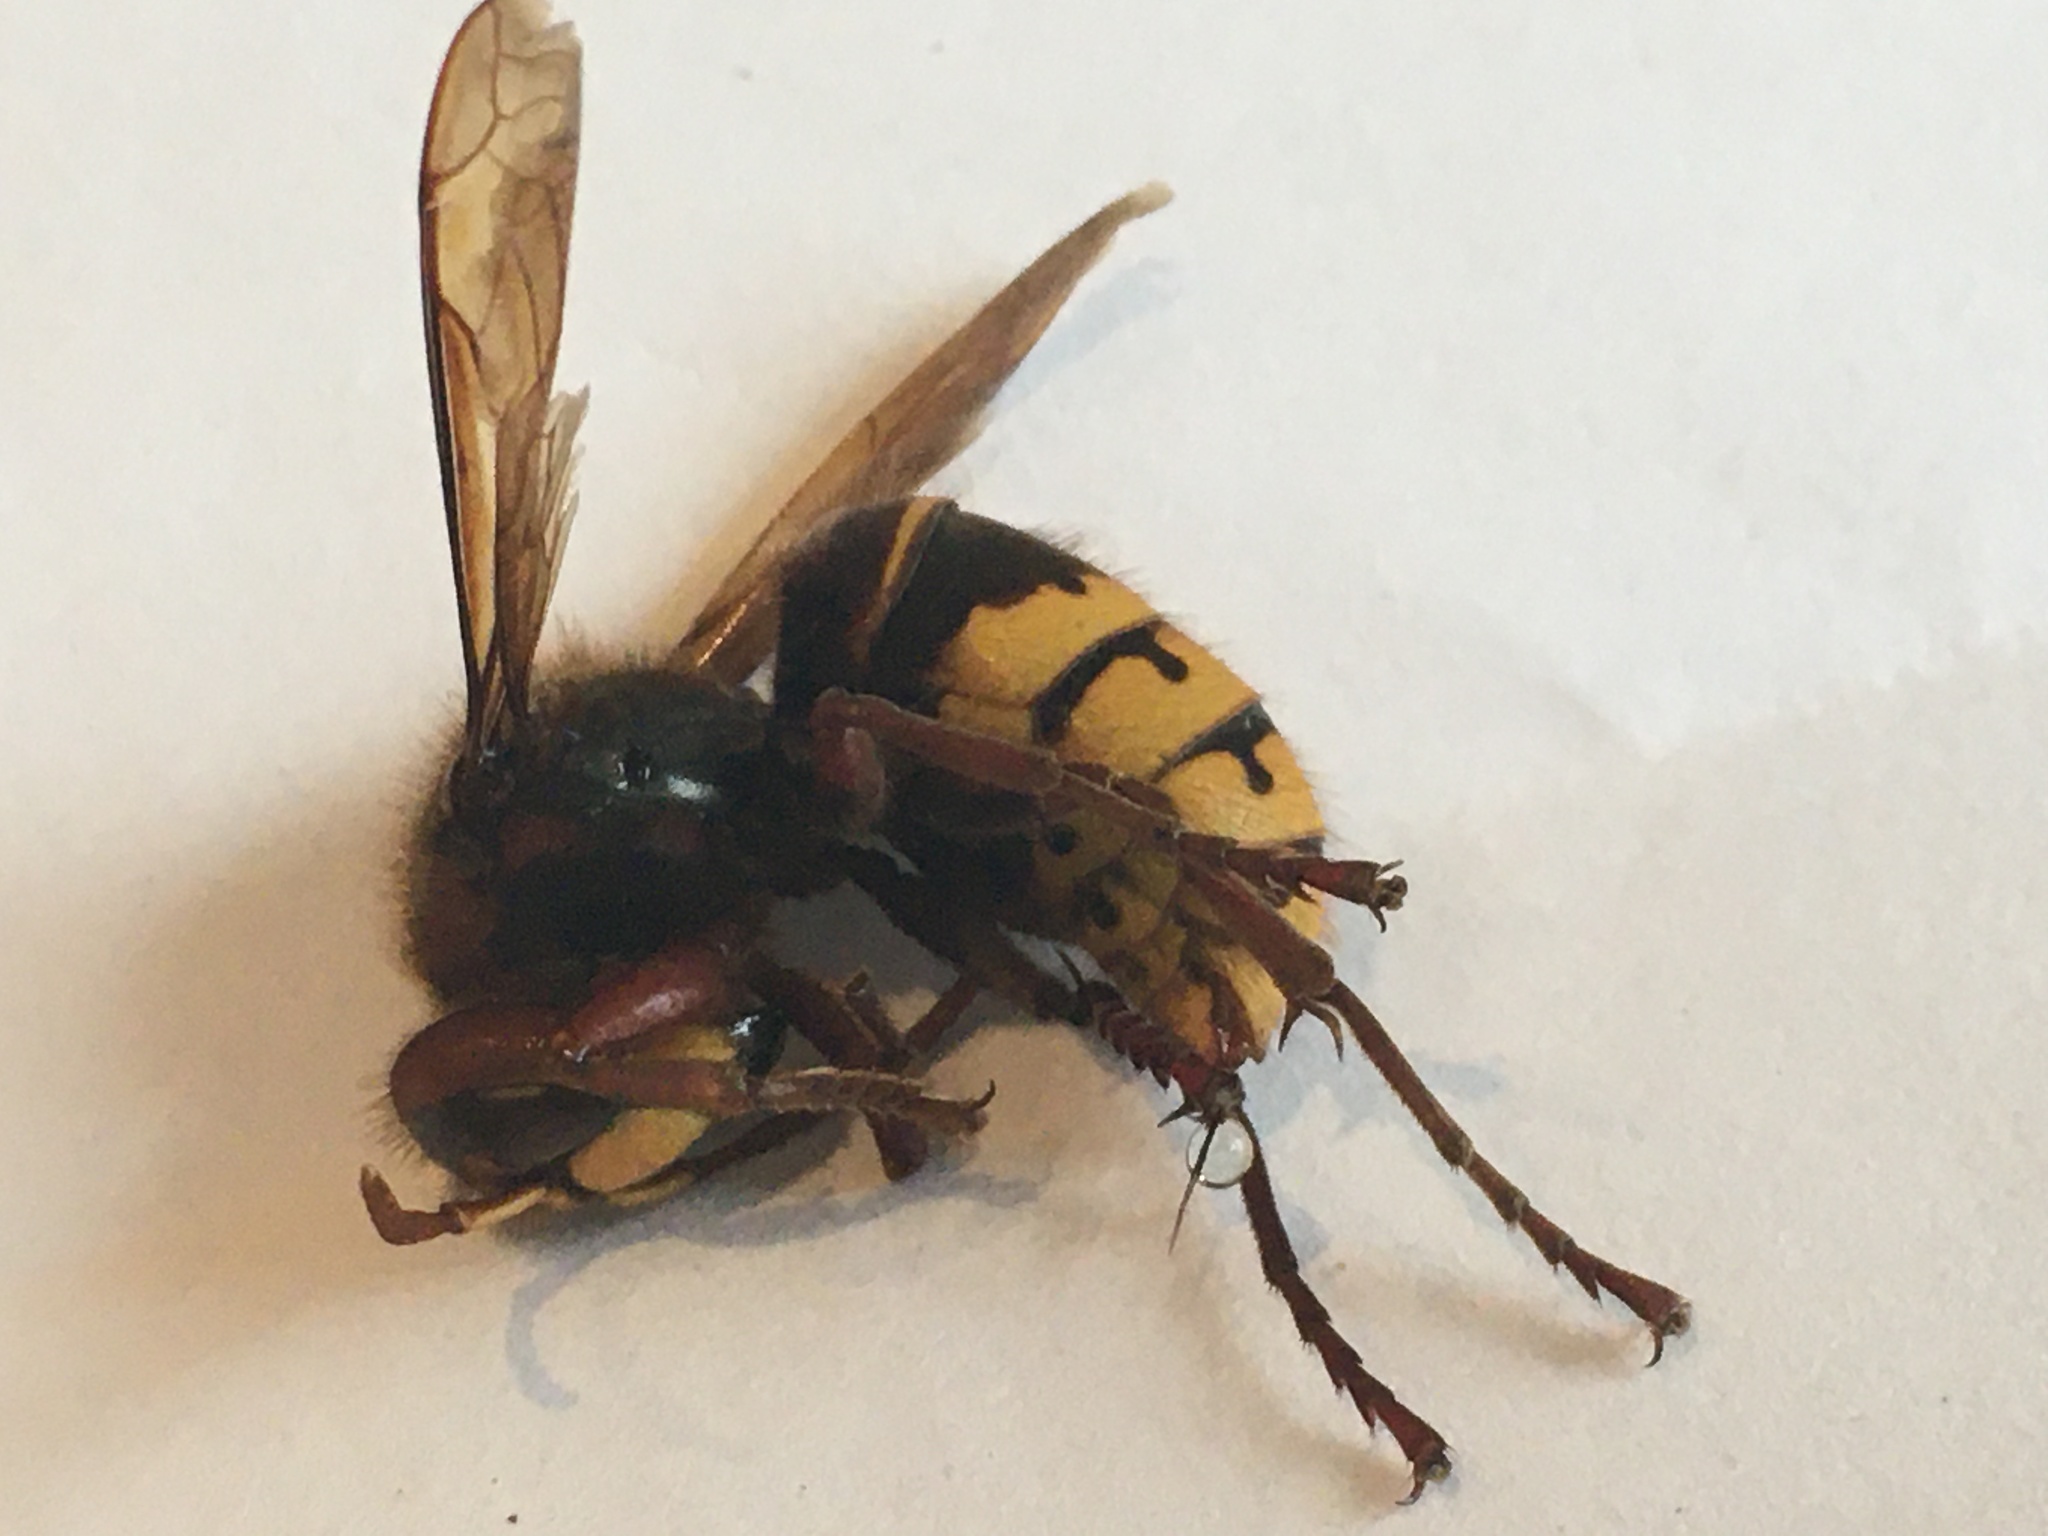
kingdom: Animalia
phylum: Arthropoda
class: Insecta
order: Hymenoptera
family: Vespidae
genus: Vespa
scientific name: Vespa crabro
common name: Hornet
